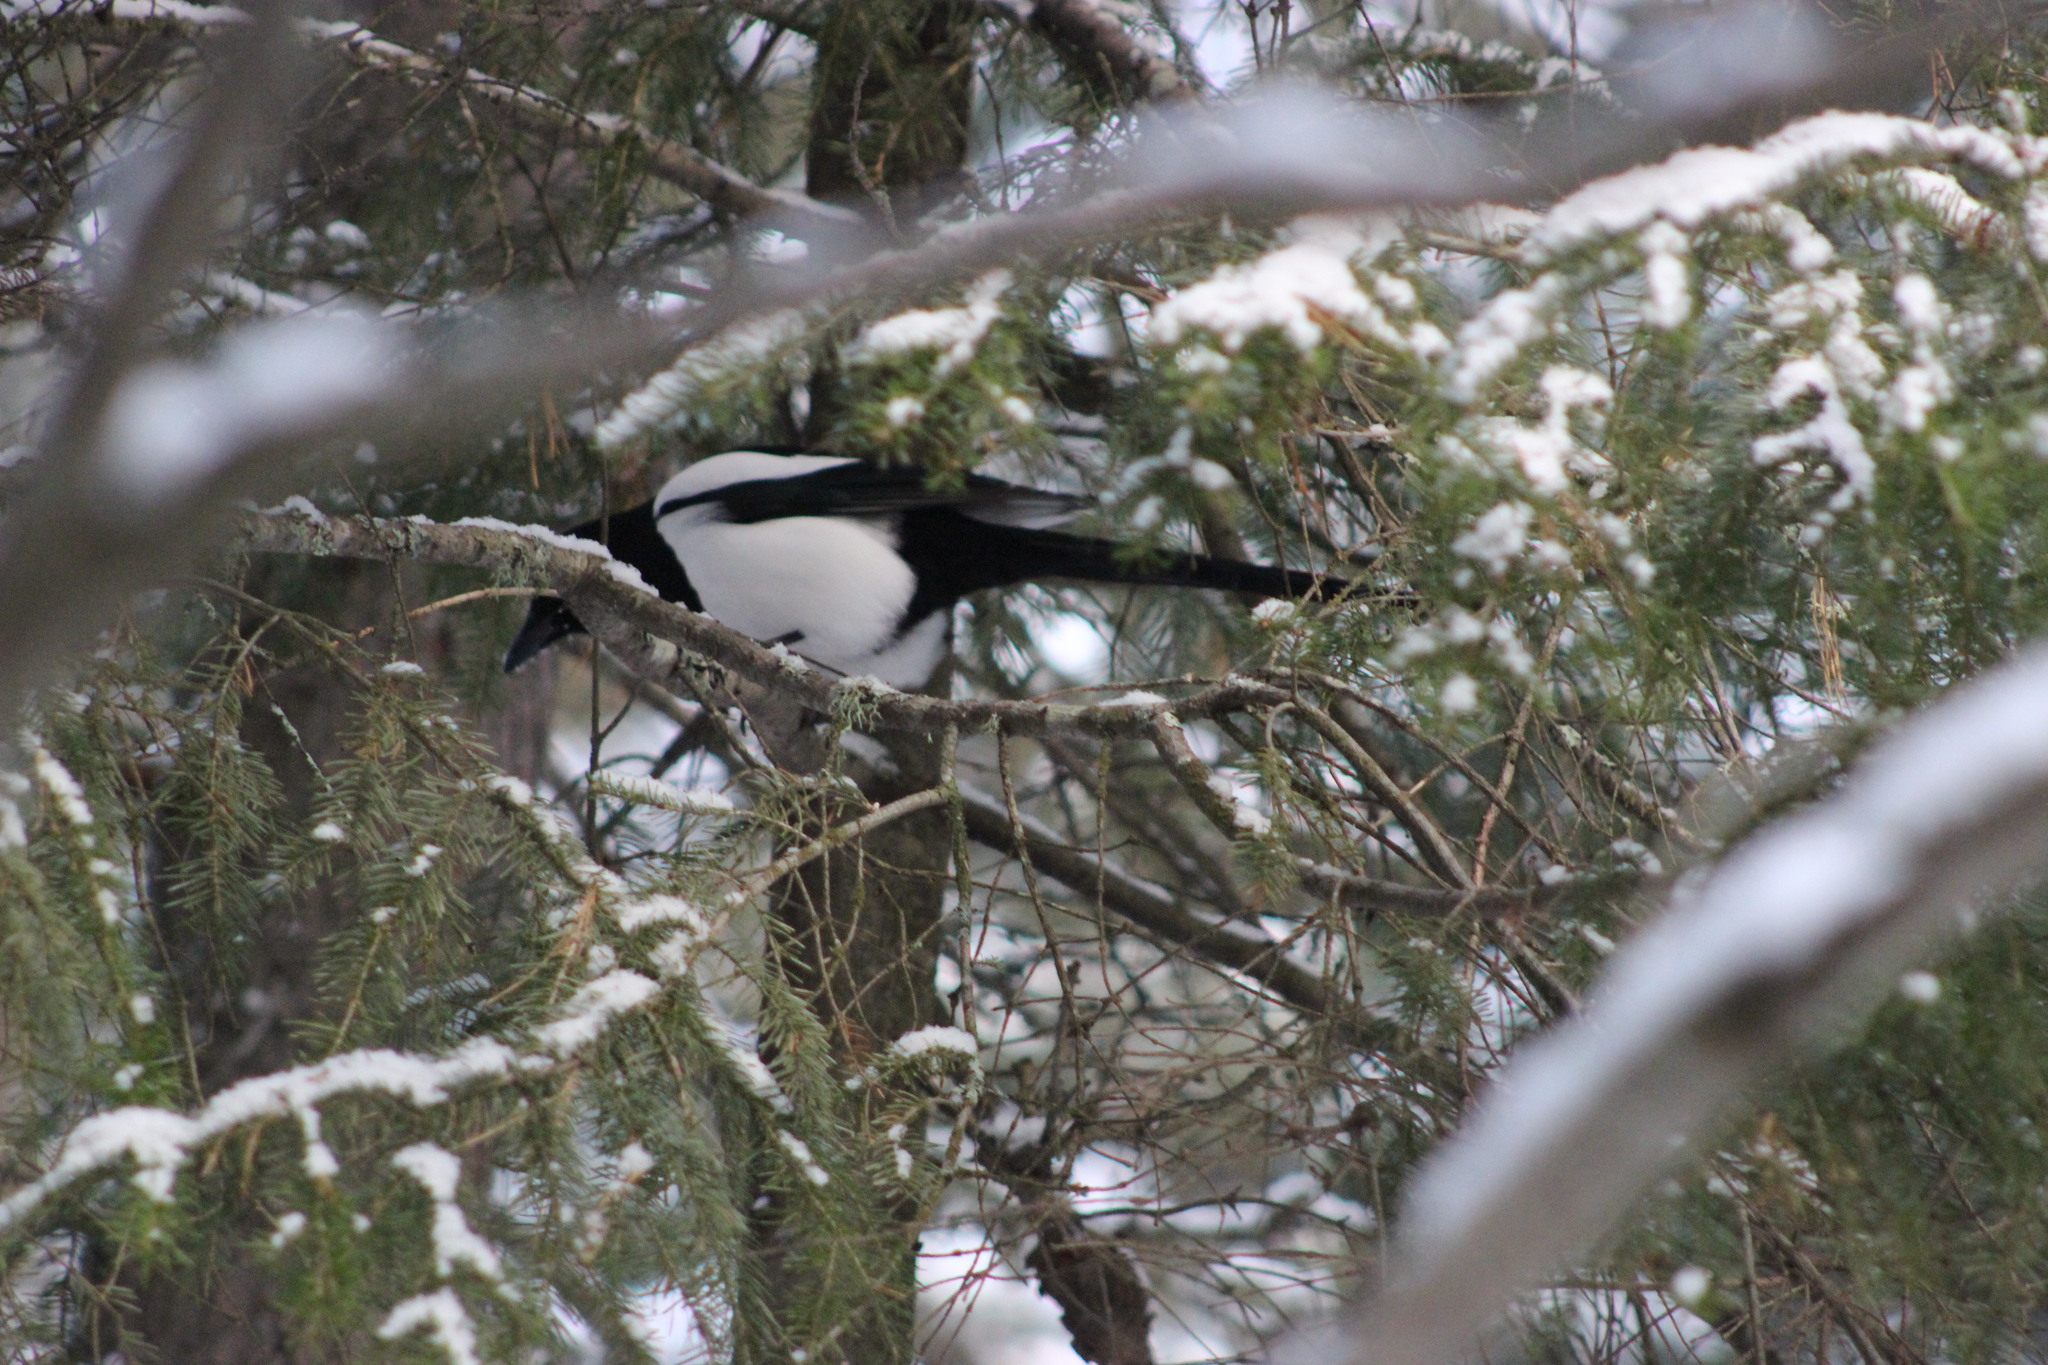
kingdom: Animalia
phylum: Chordata
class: Aves
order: Passeriformes
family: Corvidae
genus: Pica
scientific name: Pica pica
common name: Eurasian magpie
